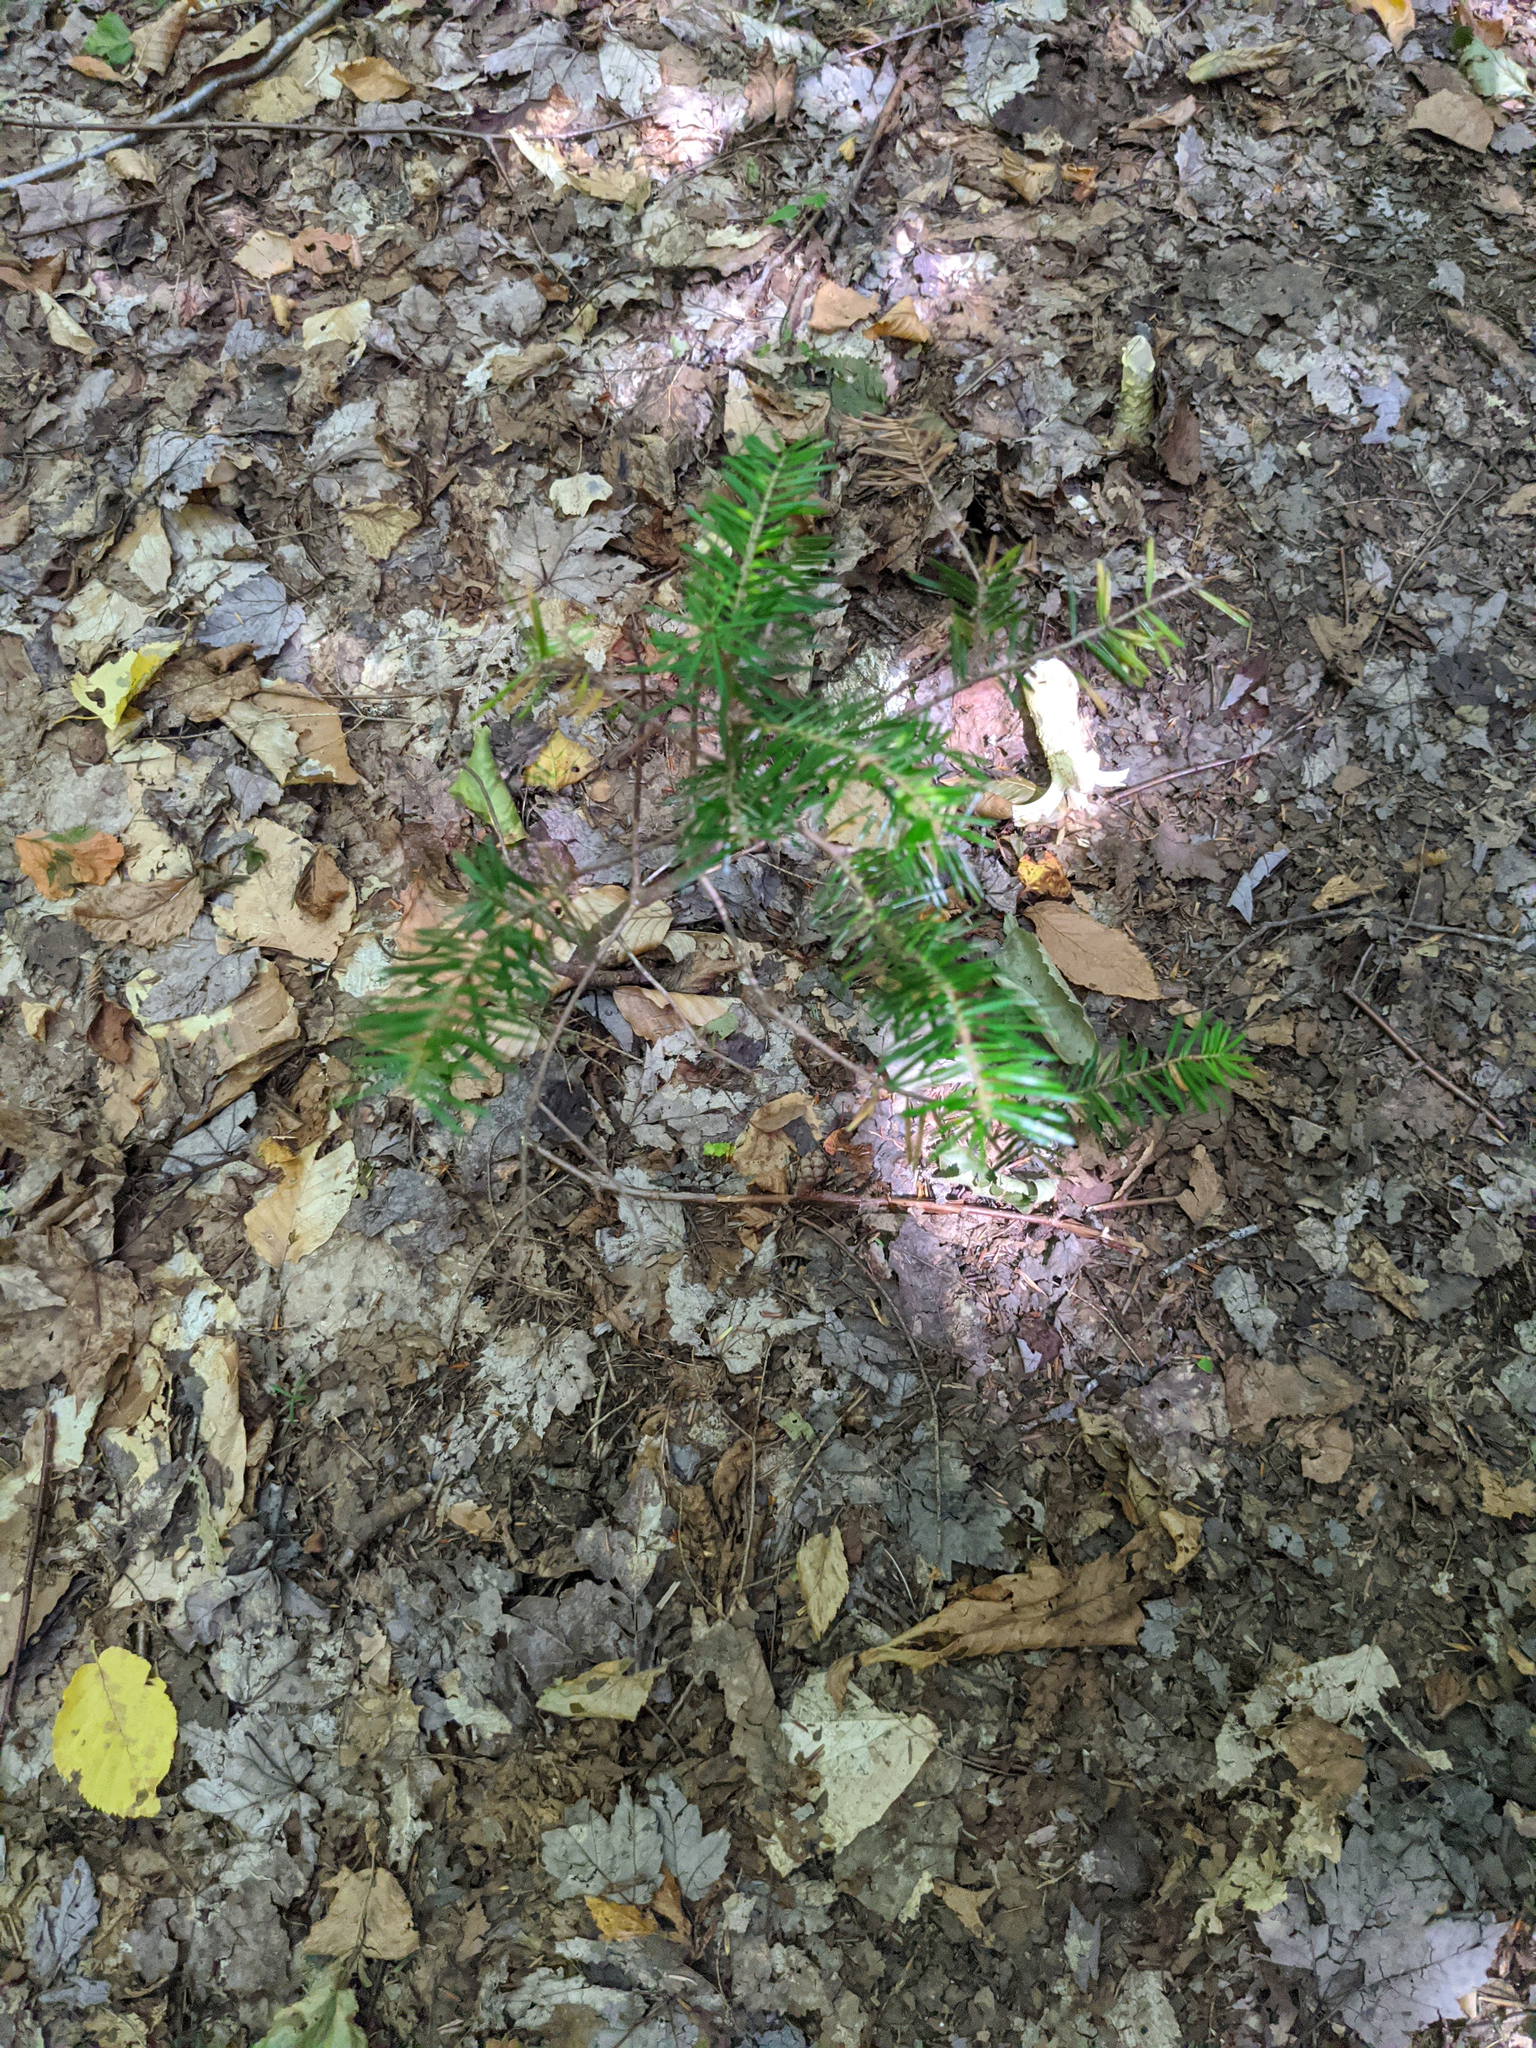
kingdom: Plantae
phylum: Tracheophyta
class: Pinopsida
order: Pinales
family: Pinaceae
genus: Abies
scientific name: Abies balsamea
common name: Balsam fir
